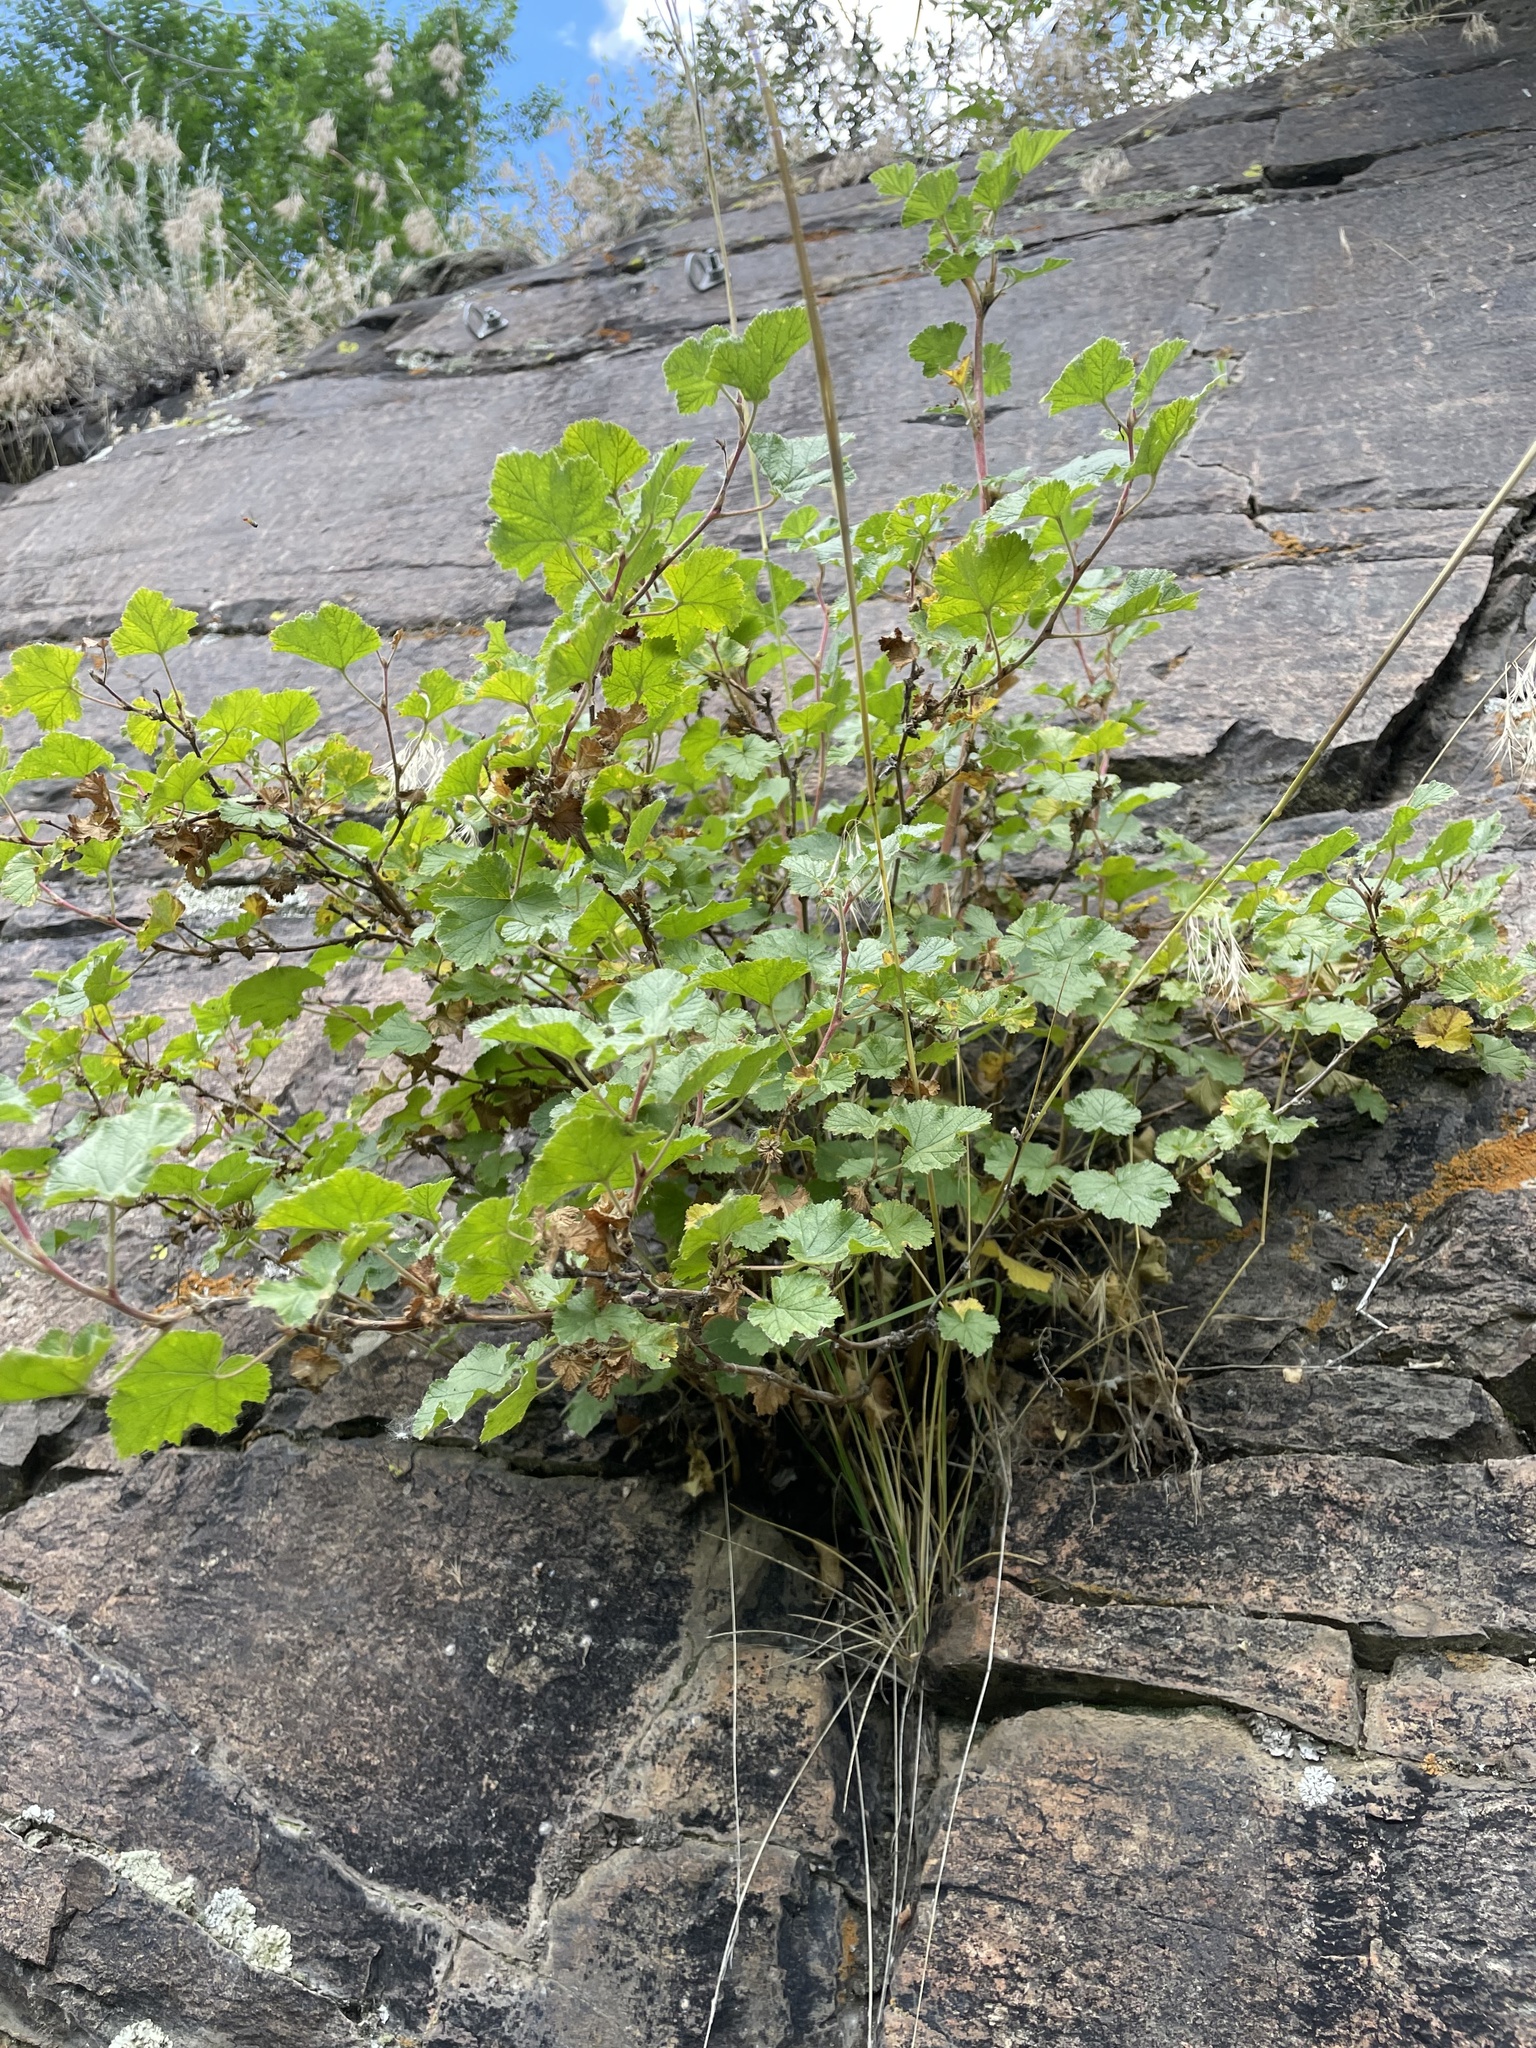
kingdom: Plantae
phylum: Tracheophyta
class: Magnoliopsida
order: Rosales
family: Rosaceae
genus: Rubus
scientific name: Rubus deliciosus
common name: Rocky mountain raspberry
